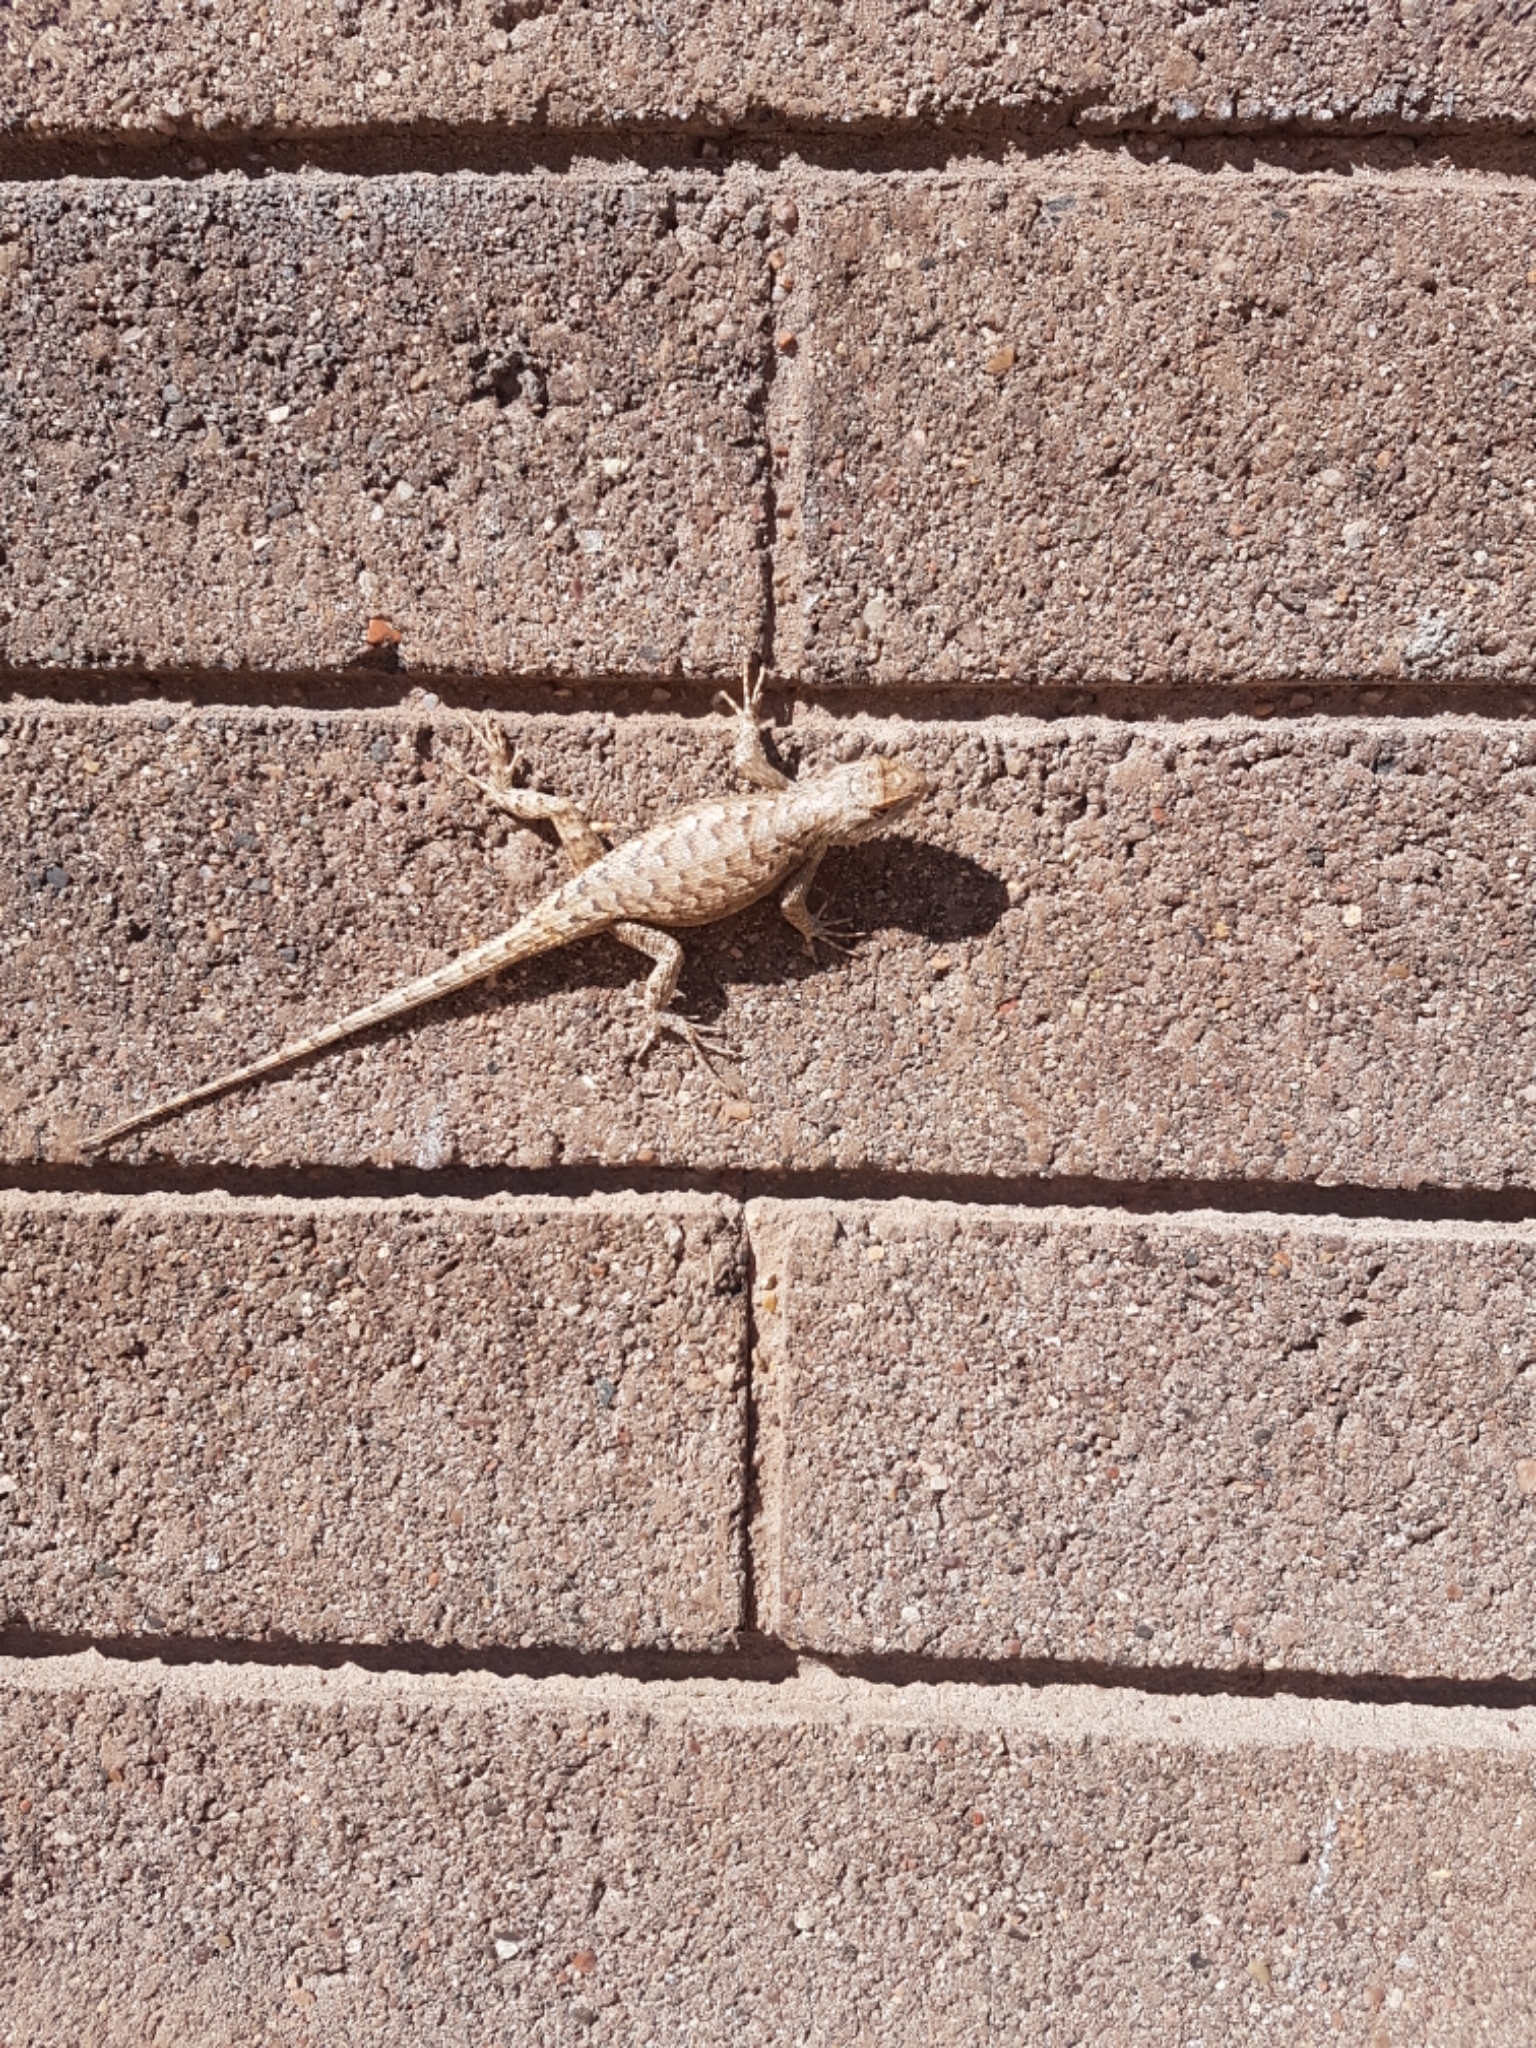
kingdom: Animalia
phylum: Chordata
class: Squamata
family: Phrynosomatidae
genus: Sceloporus
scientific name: Sceloporus tristichus
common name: Plateau fence lizard
